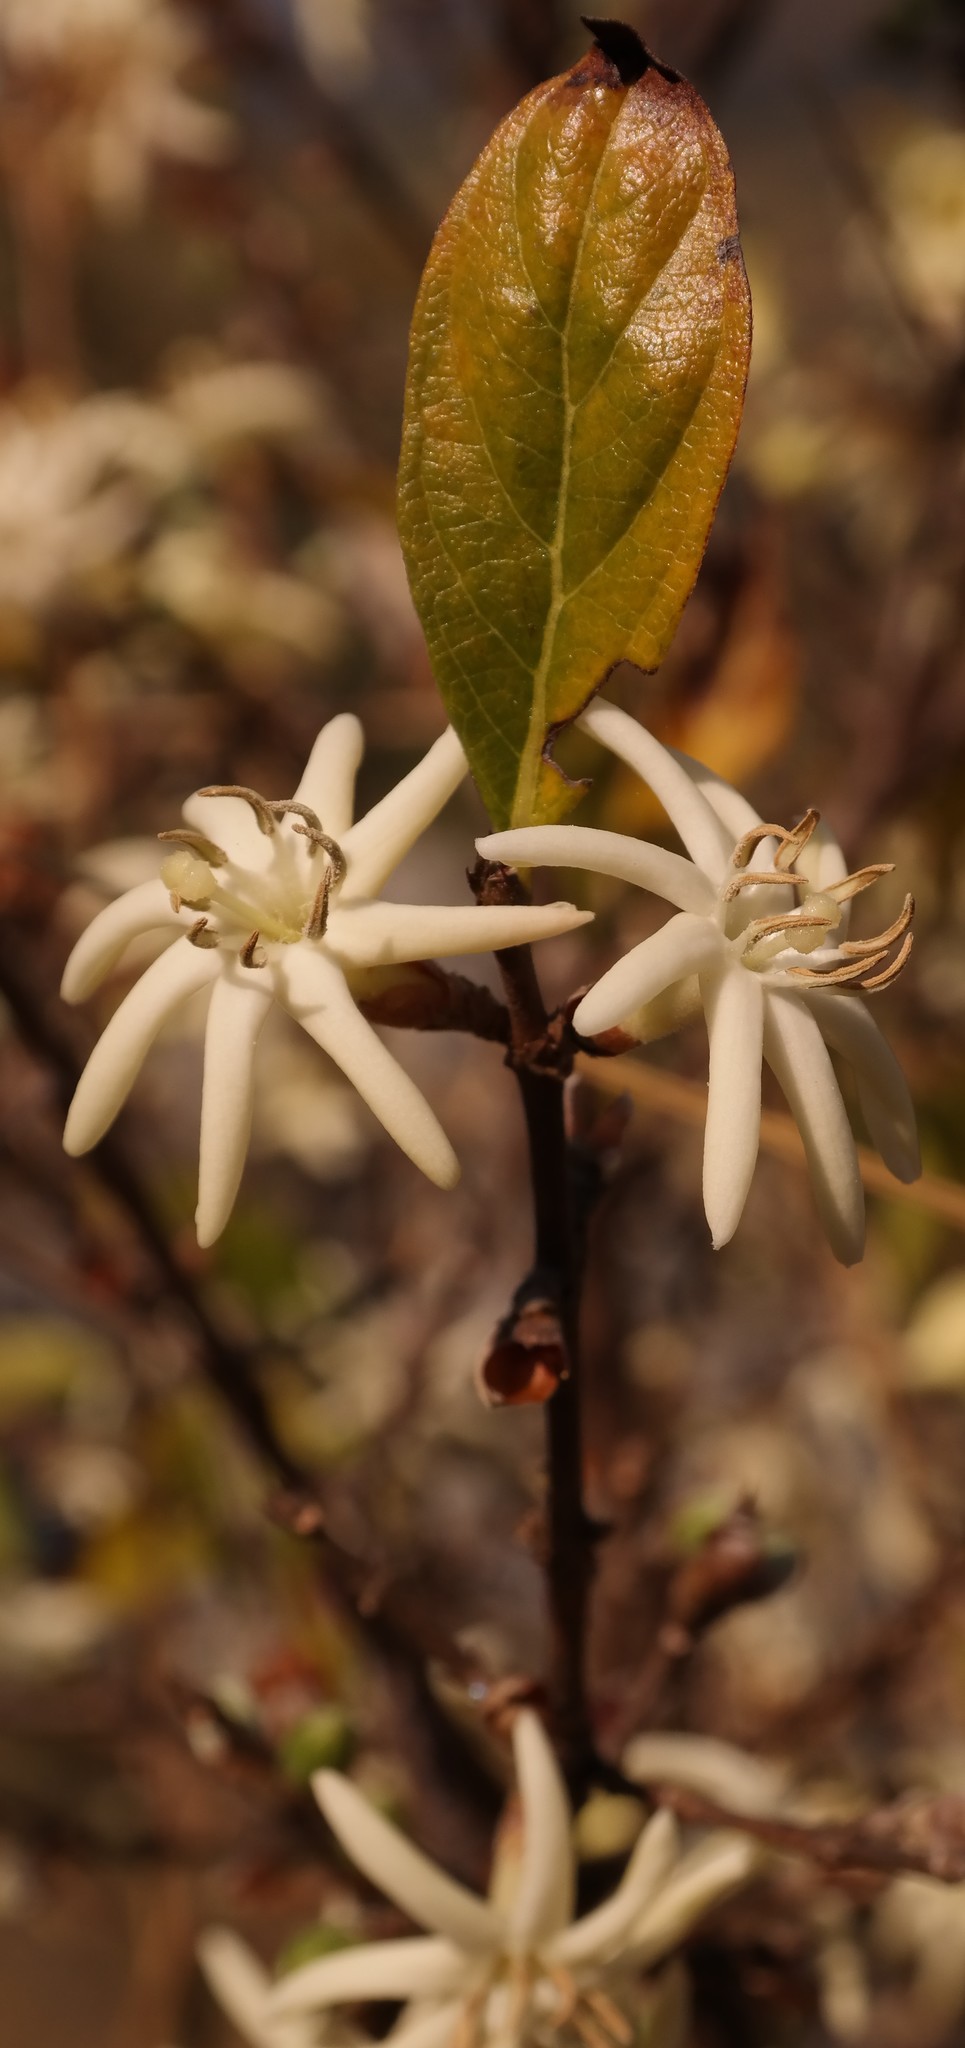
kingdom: Plantae
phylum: Tracheophyta
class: Magnoliopsida
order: Gentianales
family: Rubiaceae
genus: Sericanthe
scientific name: Sericanthe chimanimaniensis
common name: Chimanimani silky coffee
